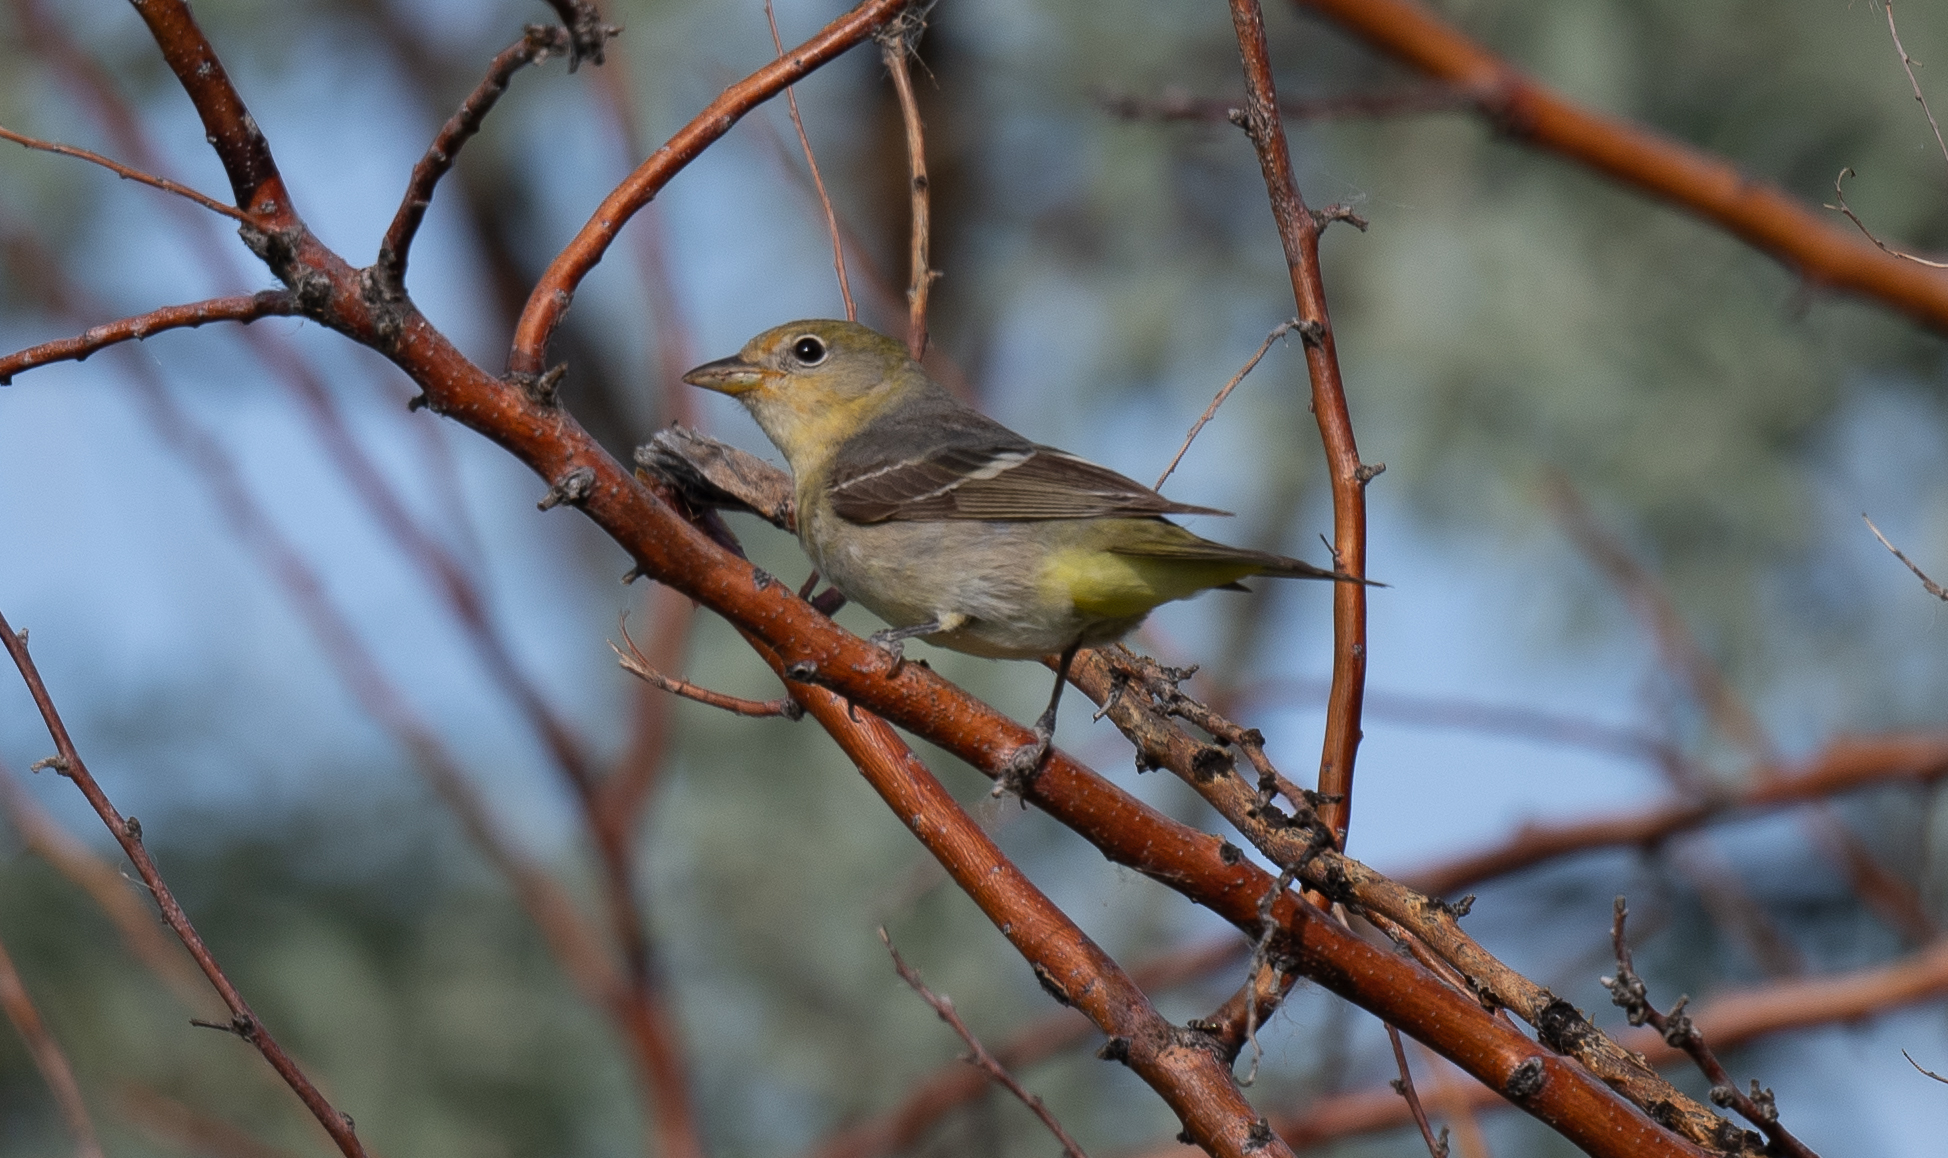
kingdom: Animalia
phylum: Chordata
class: Aves
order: Passeriformes
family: Cardinalidae
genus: Piranga
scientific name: Piranga ludoviciana
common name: Western tanager
